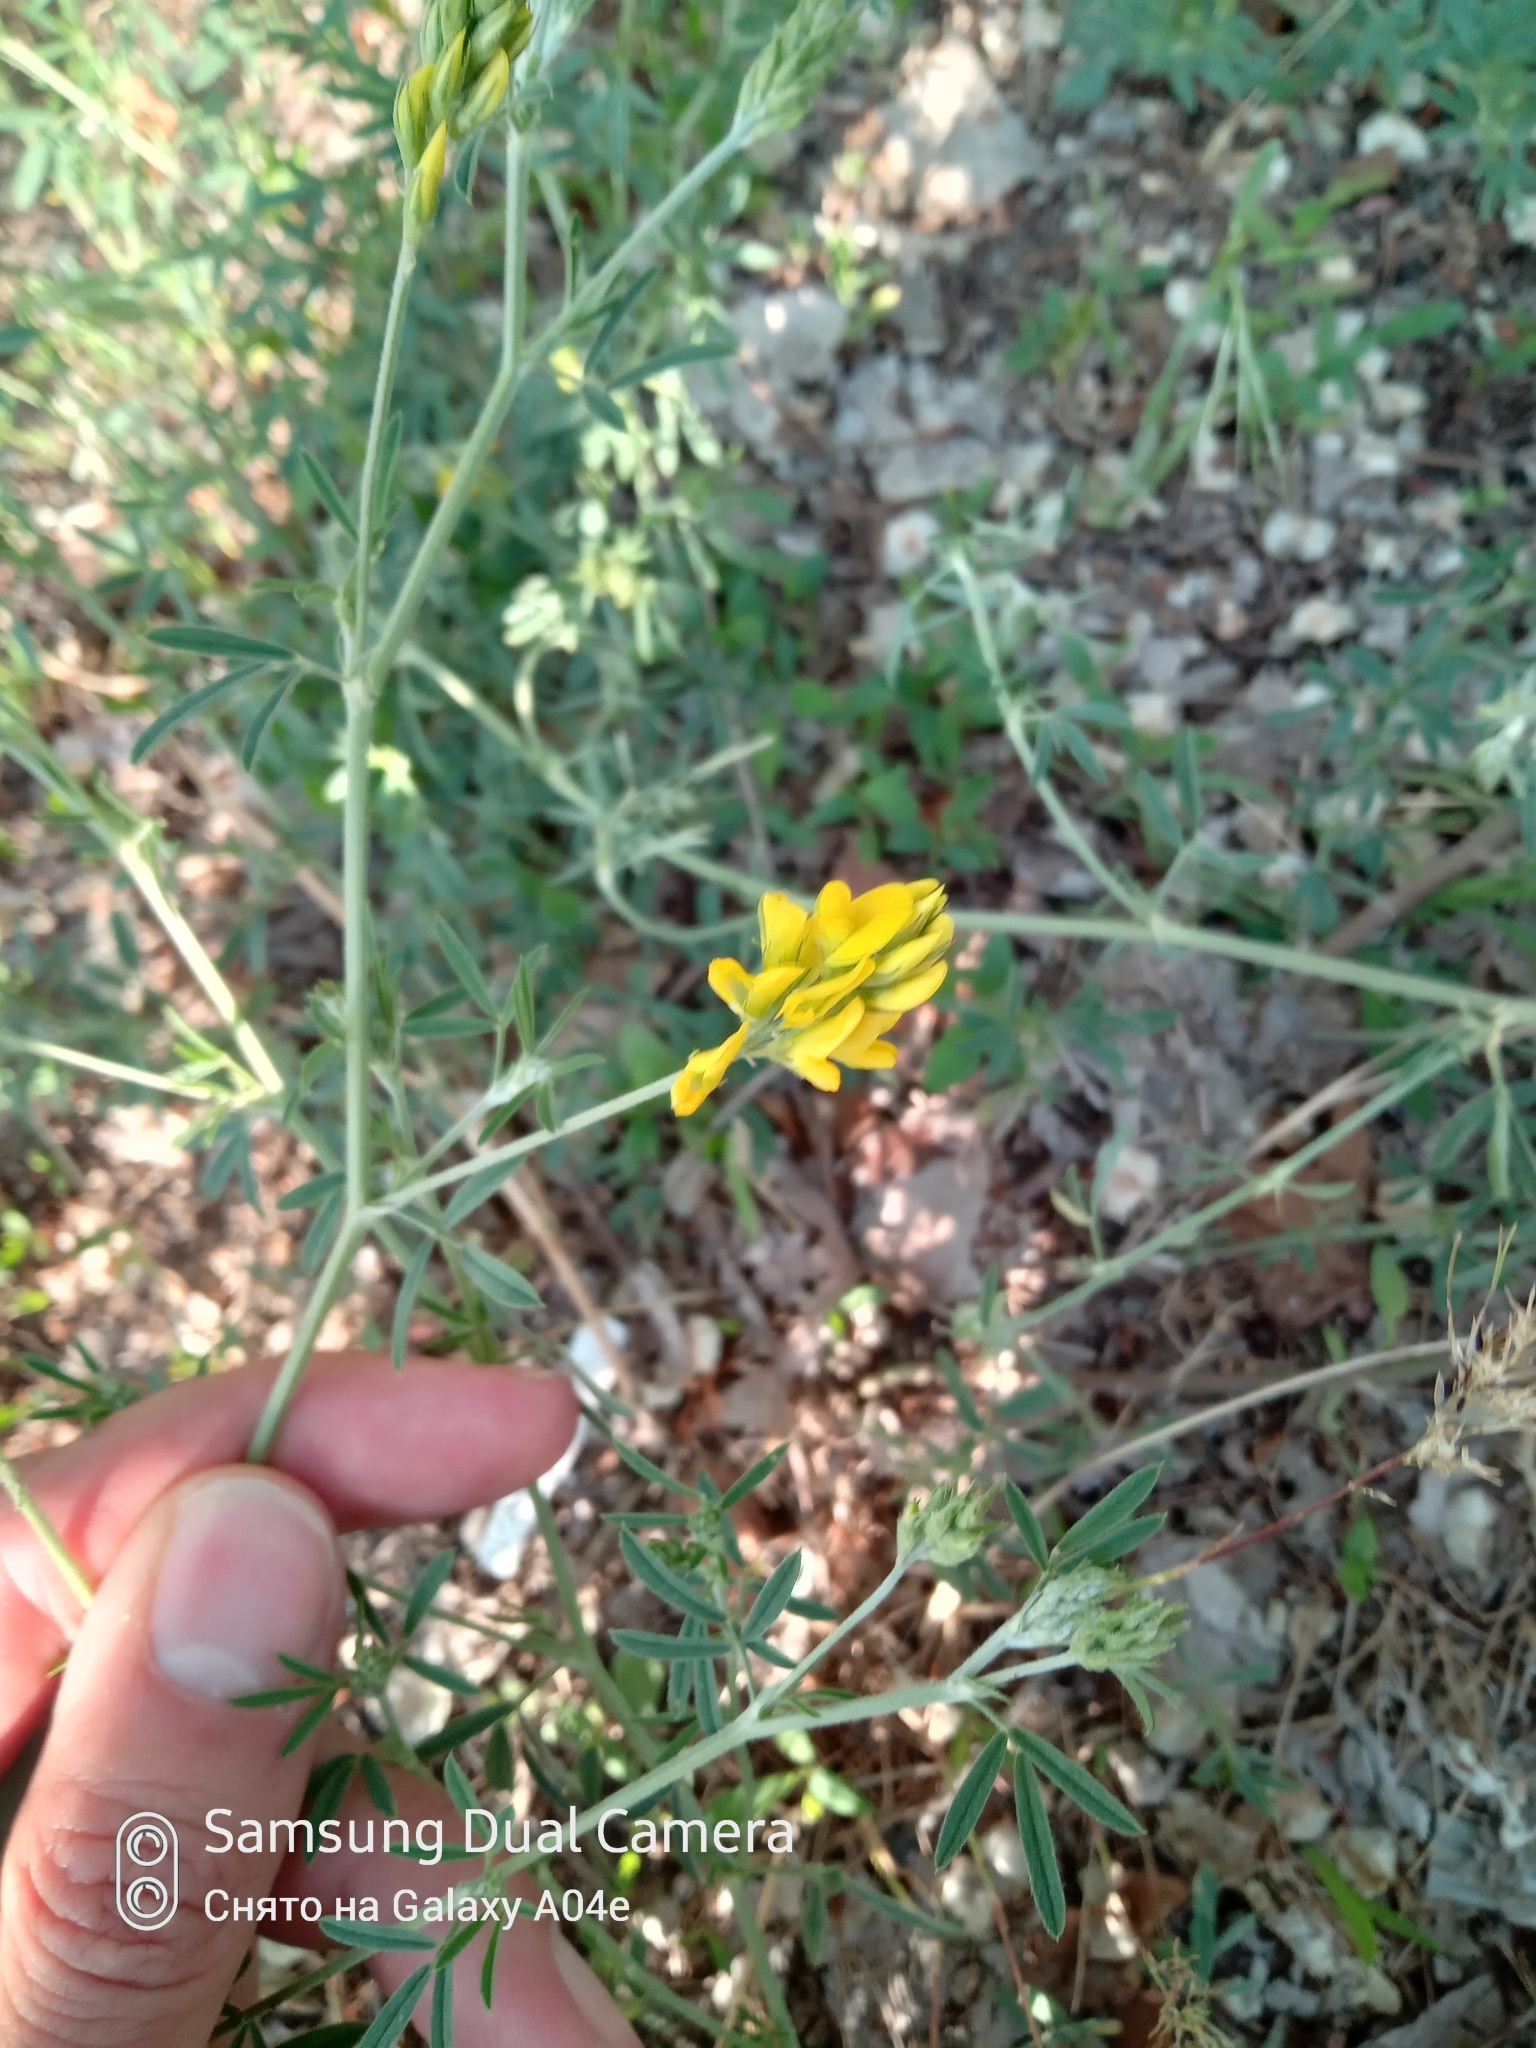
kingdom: Plantae
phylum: Tracheophyta
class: Magnoliopsida
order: Fabales
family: Fabaceae
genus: Medicago
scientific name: Medicago falcata
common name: Sickle medick
